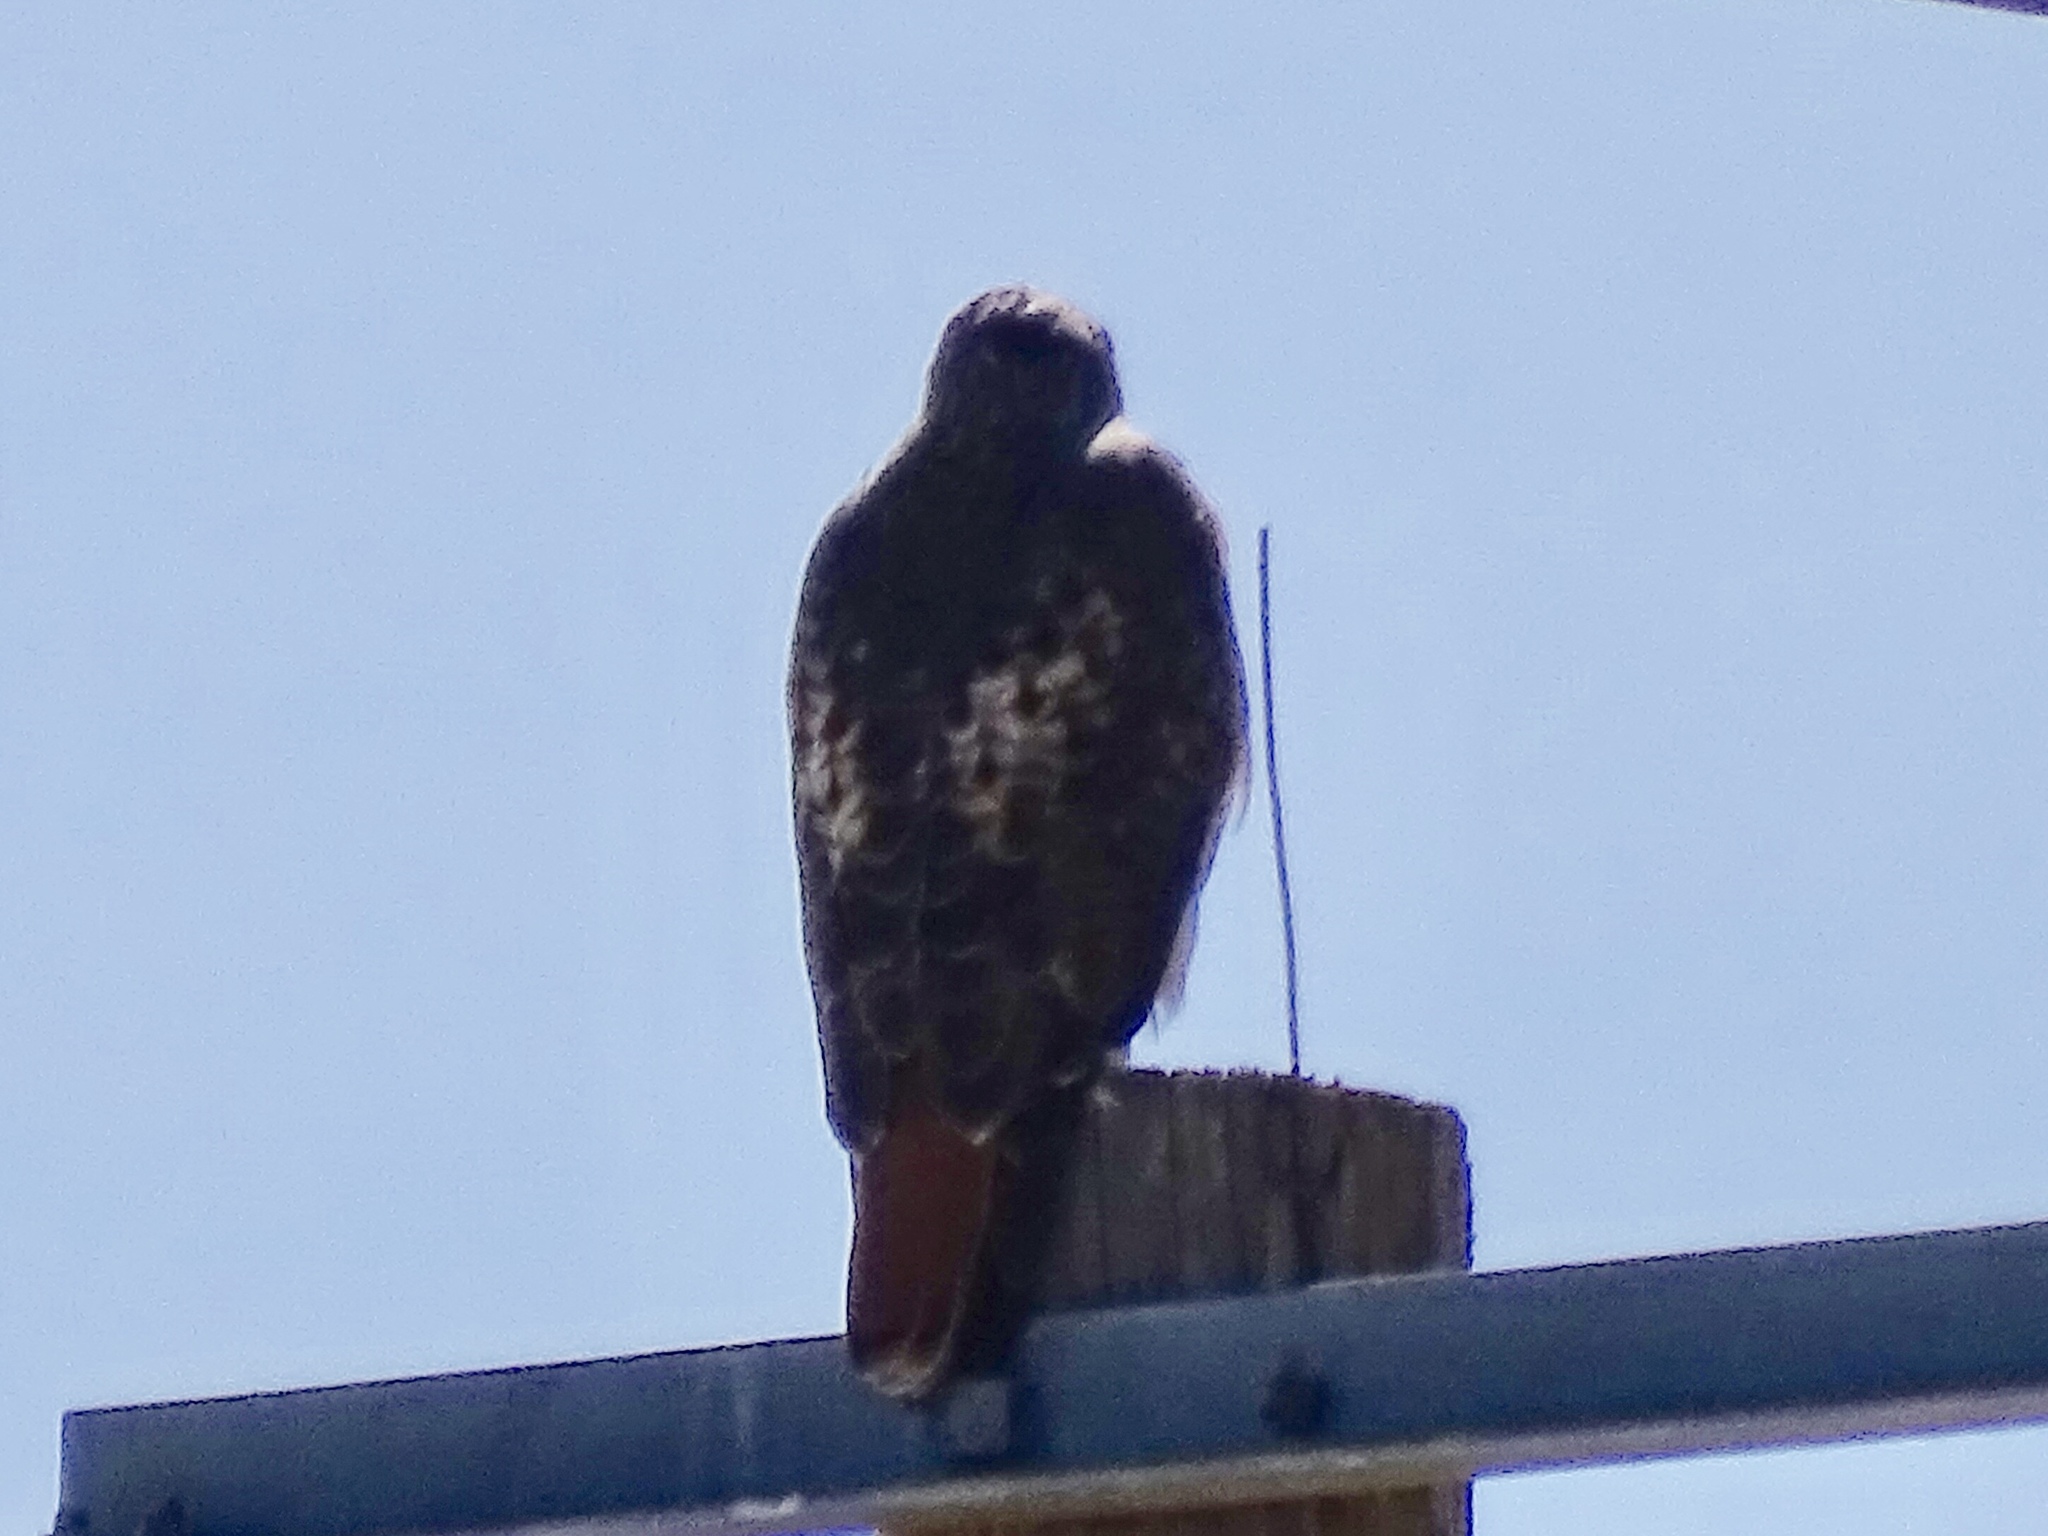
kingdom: Animalia
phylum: Chordata
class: Aves
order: Accipitriformes
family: Accipitridae
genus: Buteo
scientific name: Buteo jamaicensis
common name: Red-tailed hawk
